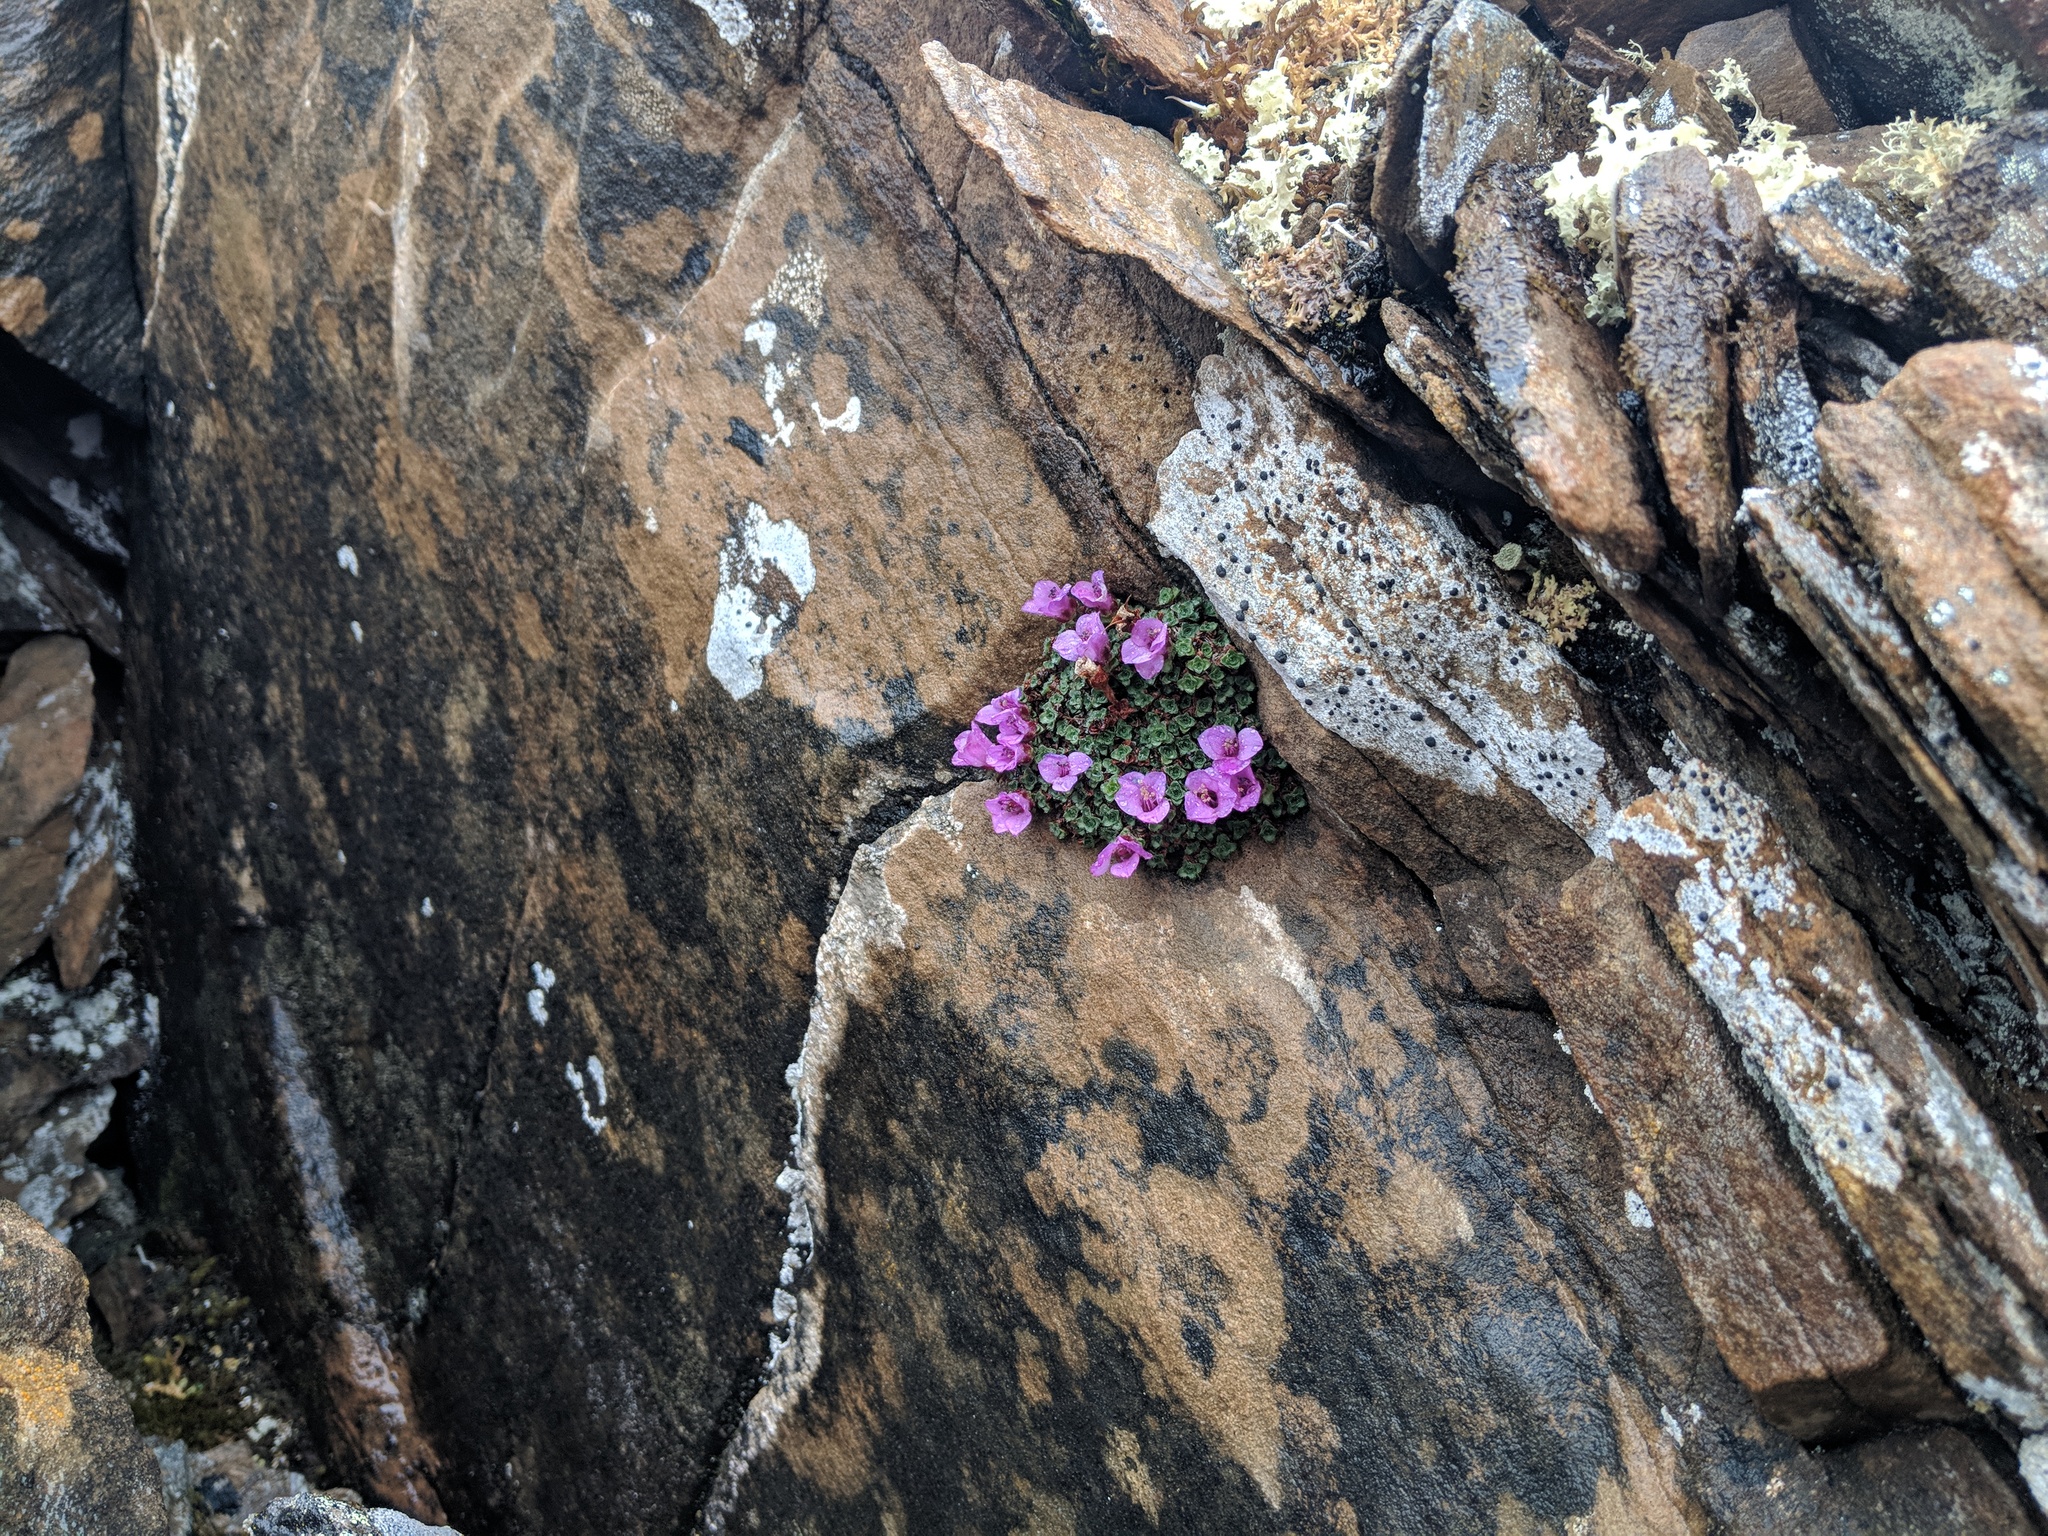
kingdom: Plantae
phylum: Tracheophyta
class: Magnoliopsida
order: Saxifragales
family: Saxifragaceae
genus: Saxifraga
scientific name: Saxifraga oppositifolia
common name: Purple saxifrage
